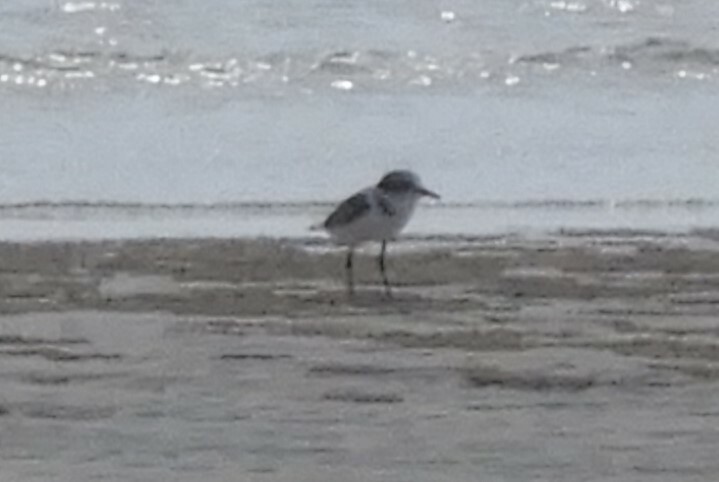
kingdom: Animalia
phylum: Chordata
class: Aves
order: Charadriiformes
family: Charadriidae
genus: Charadrius
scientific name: Charadrius alexandrinus
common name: Kentish plover
